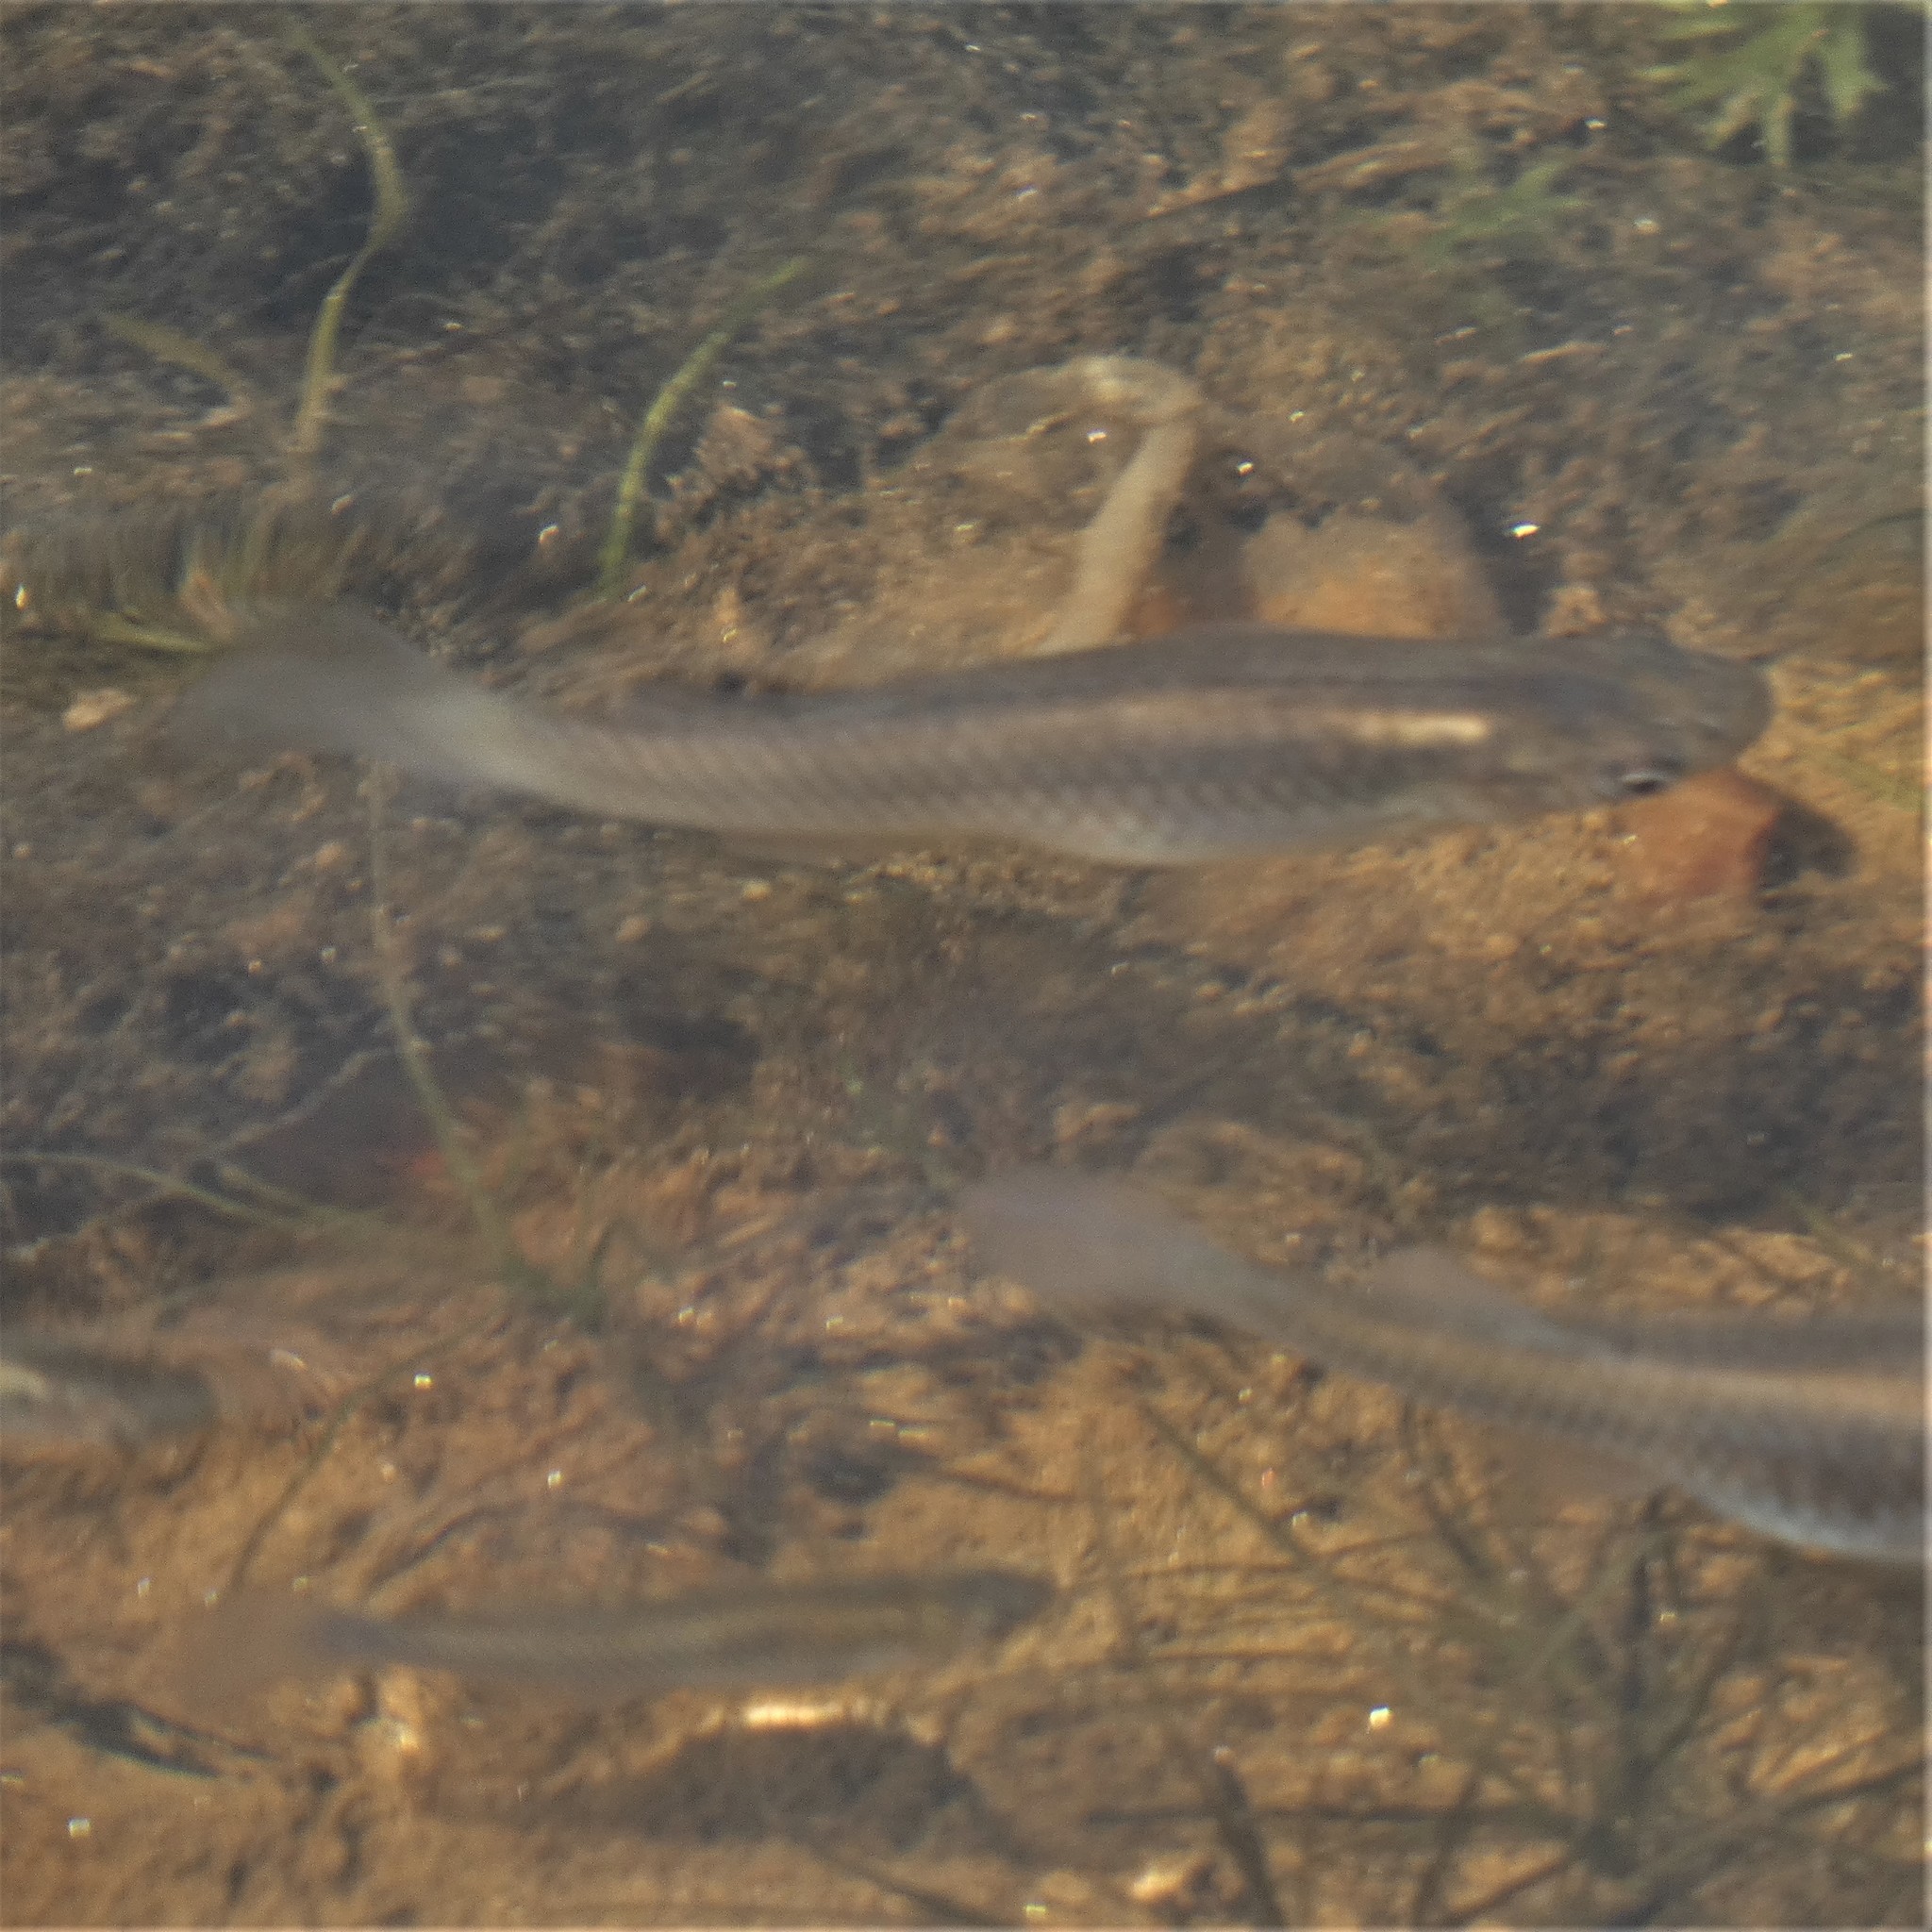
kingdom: Animalia
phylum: Chordata
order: Cyprinodontiformes
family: Poeciliidae
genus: Gambusia
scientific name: Gambusia holbrooki
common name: Eastern mosquitofish
